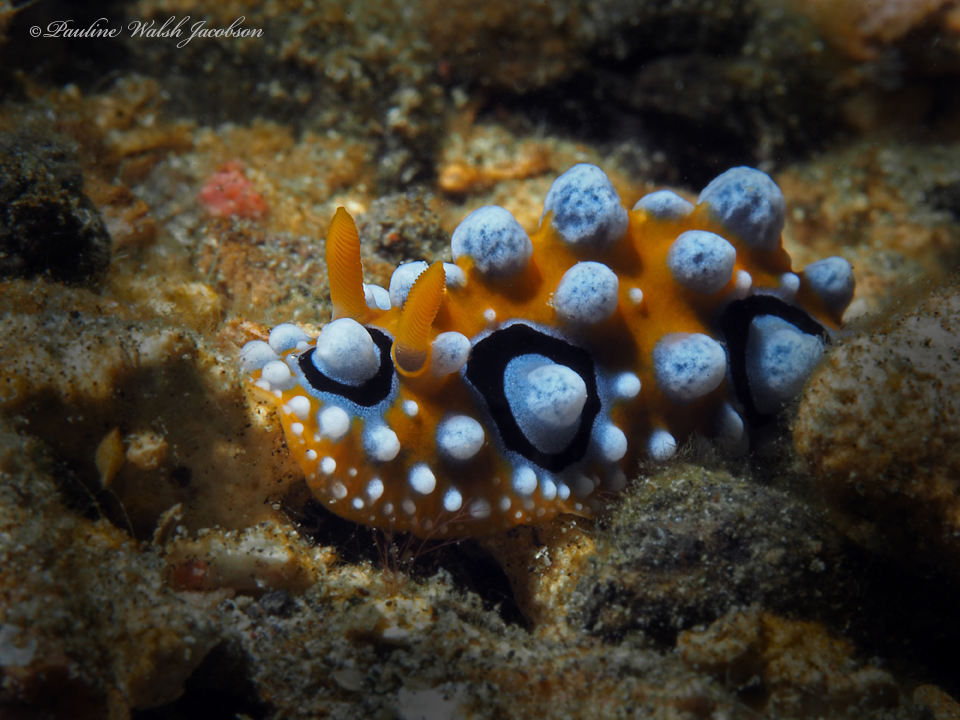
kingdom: Animalia
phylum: Mollusca
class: Gastropoda
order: Nudibranchia
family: Phyllidiidae
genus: Phyllidia
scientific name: Phyllidia ocellata
